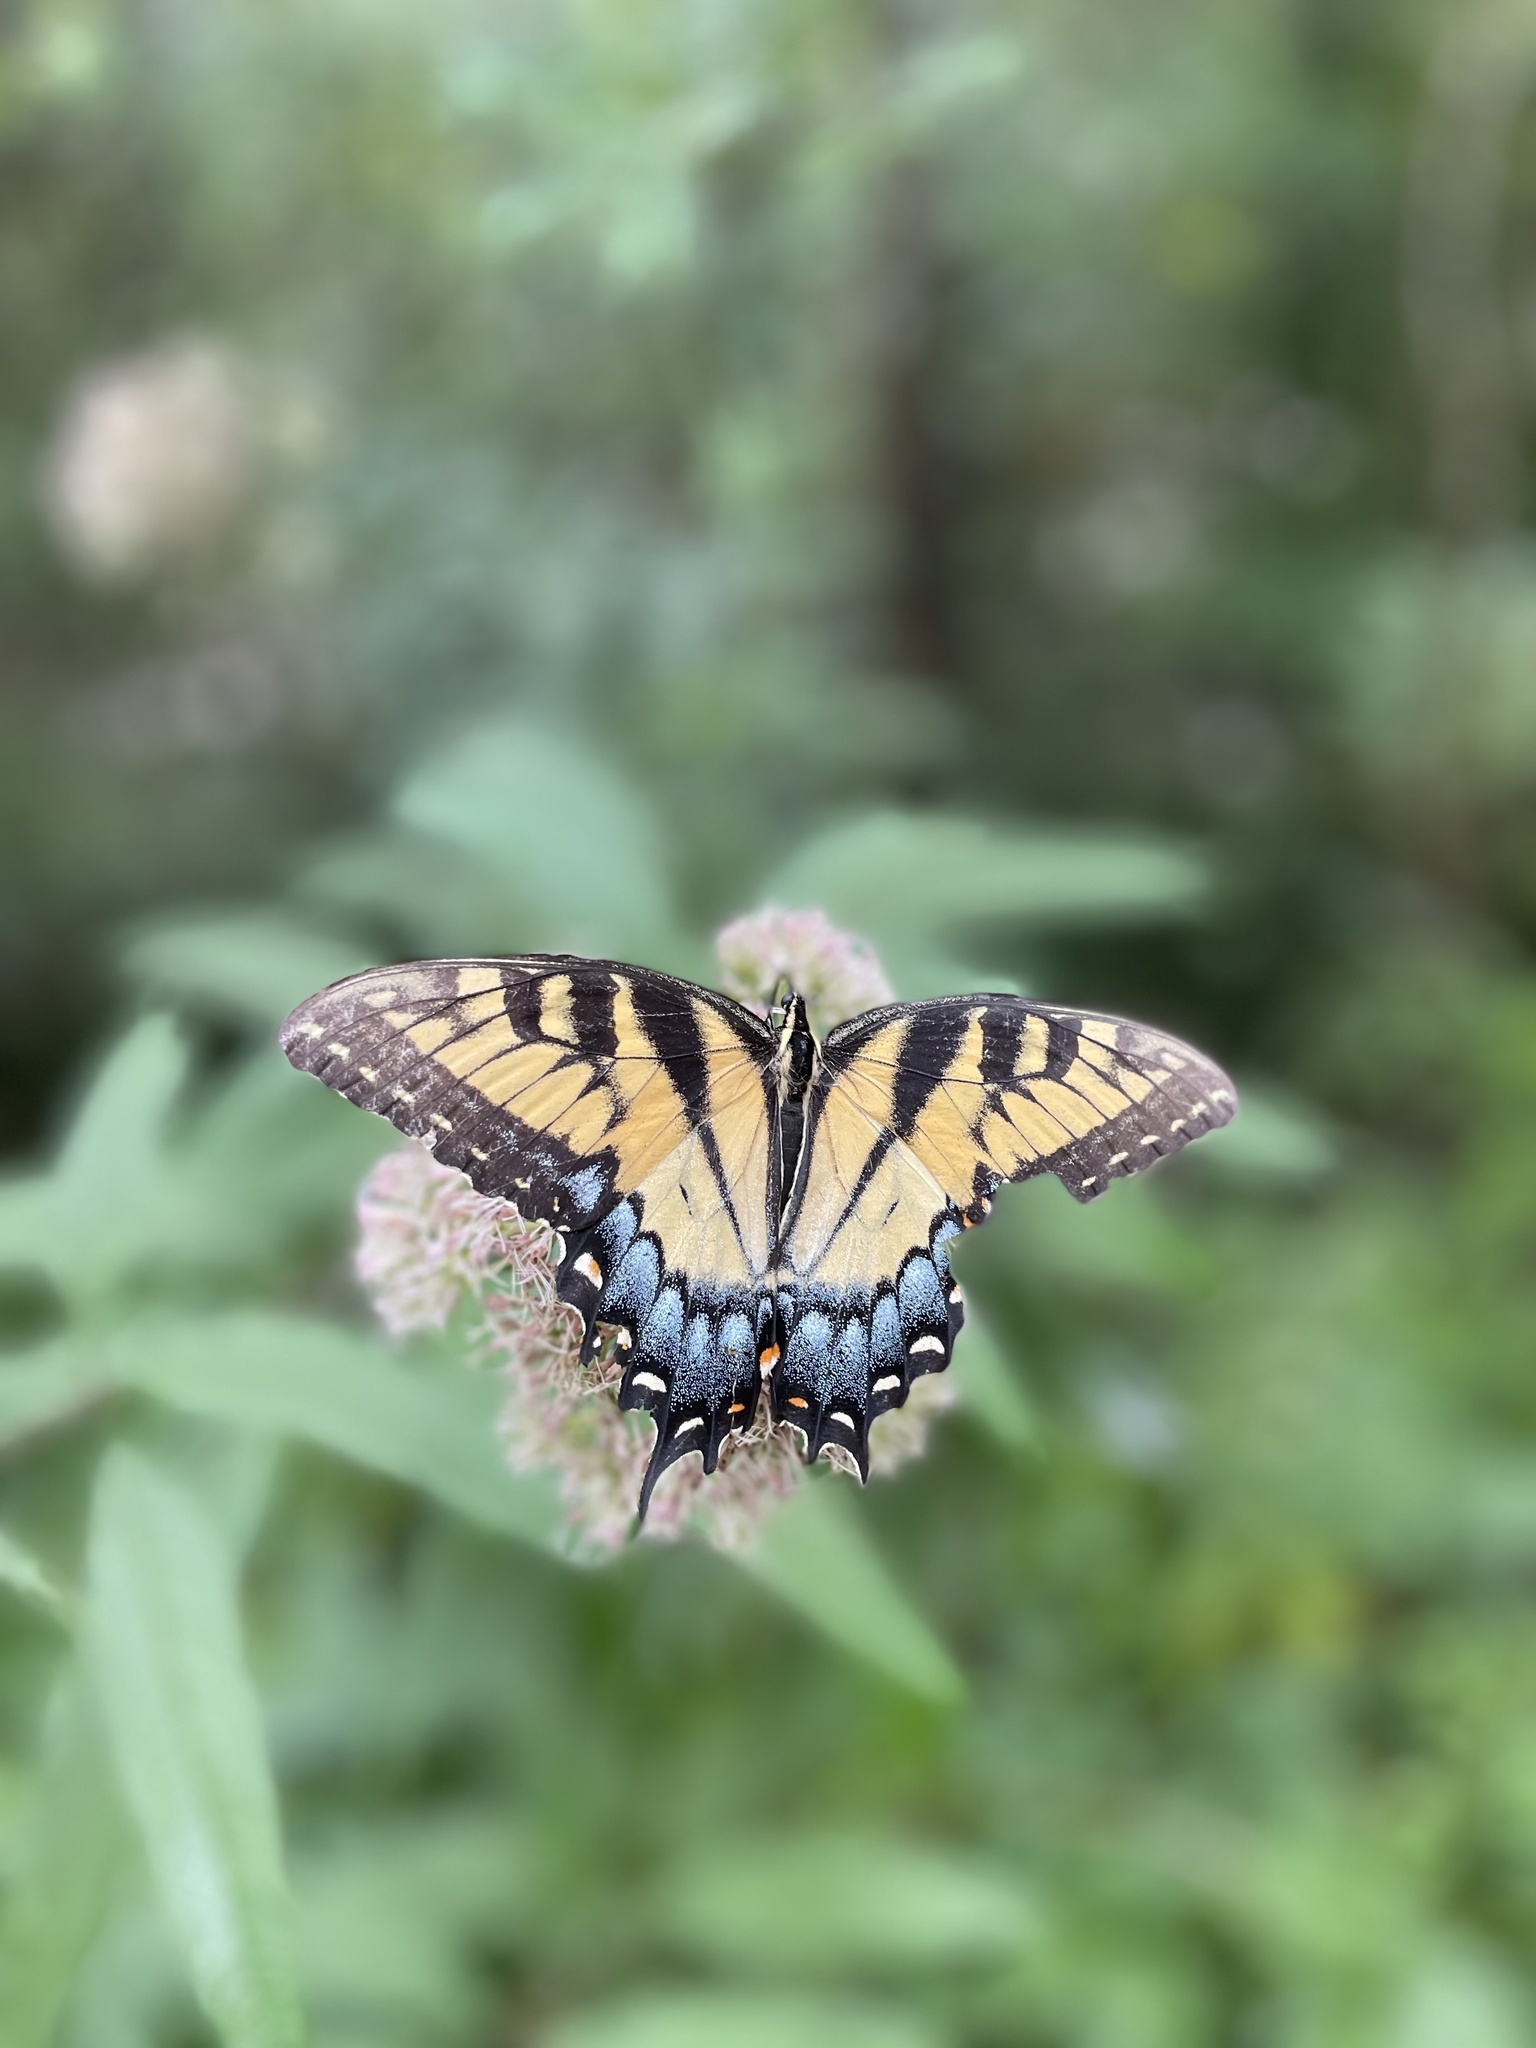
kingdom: Animalia
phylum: Arthropoda
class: Insecta
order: Lepidoptera
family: Papilionidae
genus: Papilio
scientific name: Papilio glaucus
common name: Tiger swallowtail
